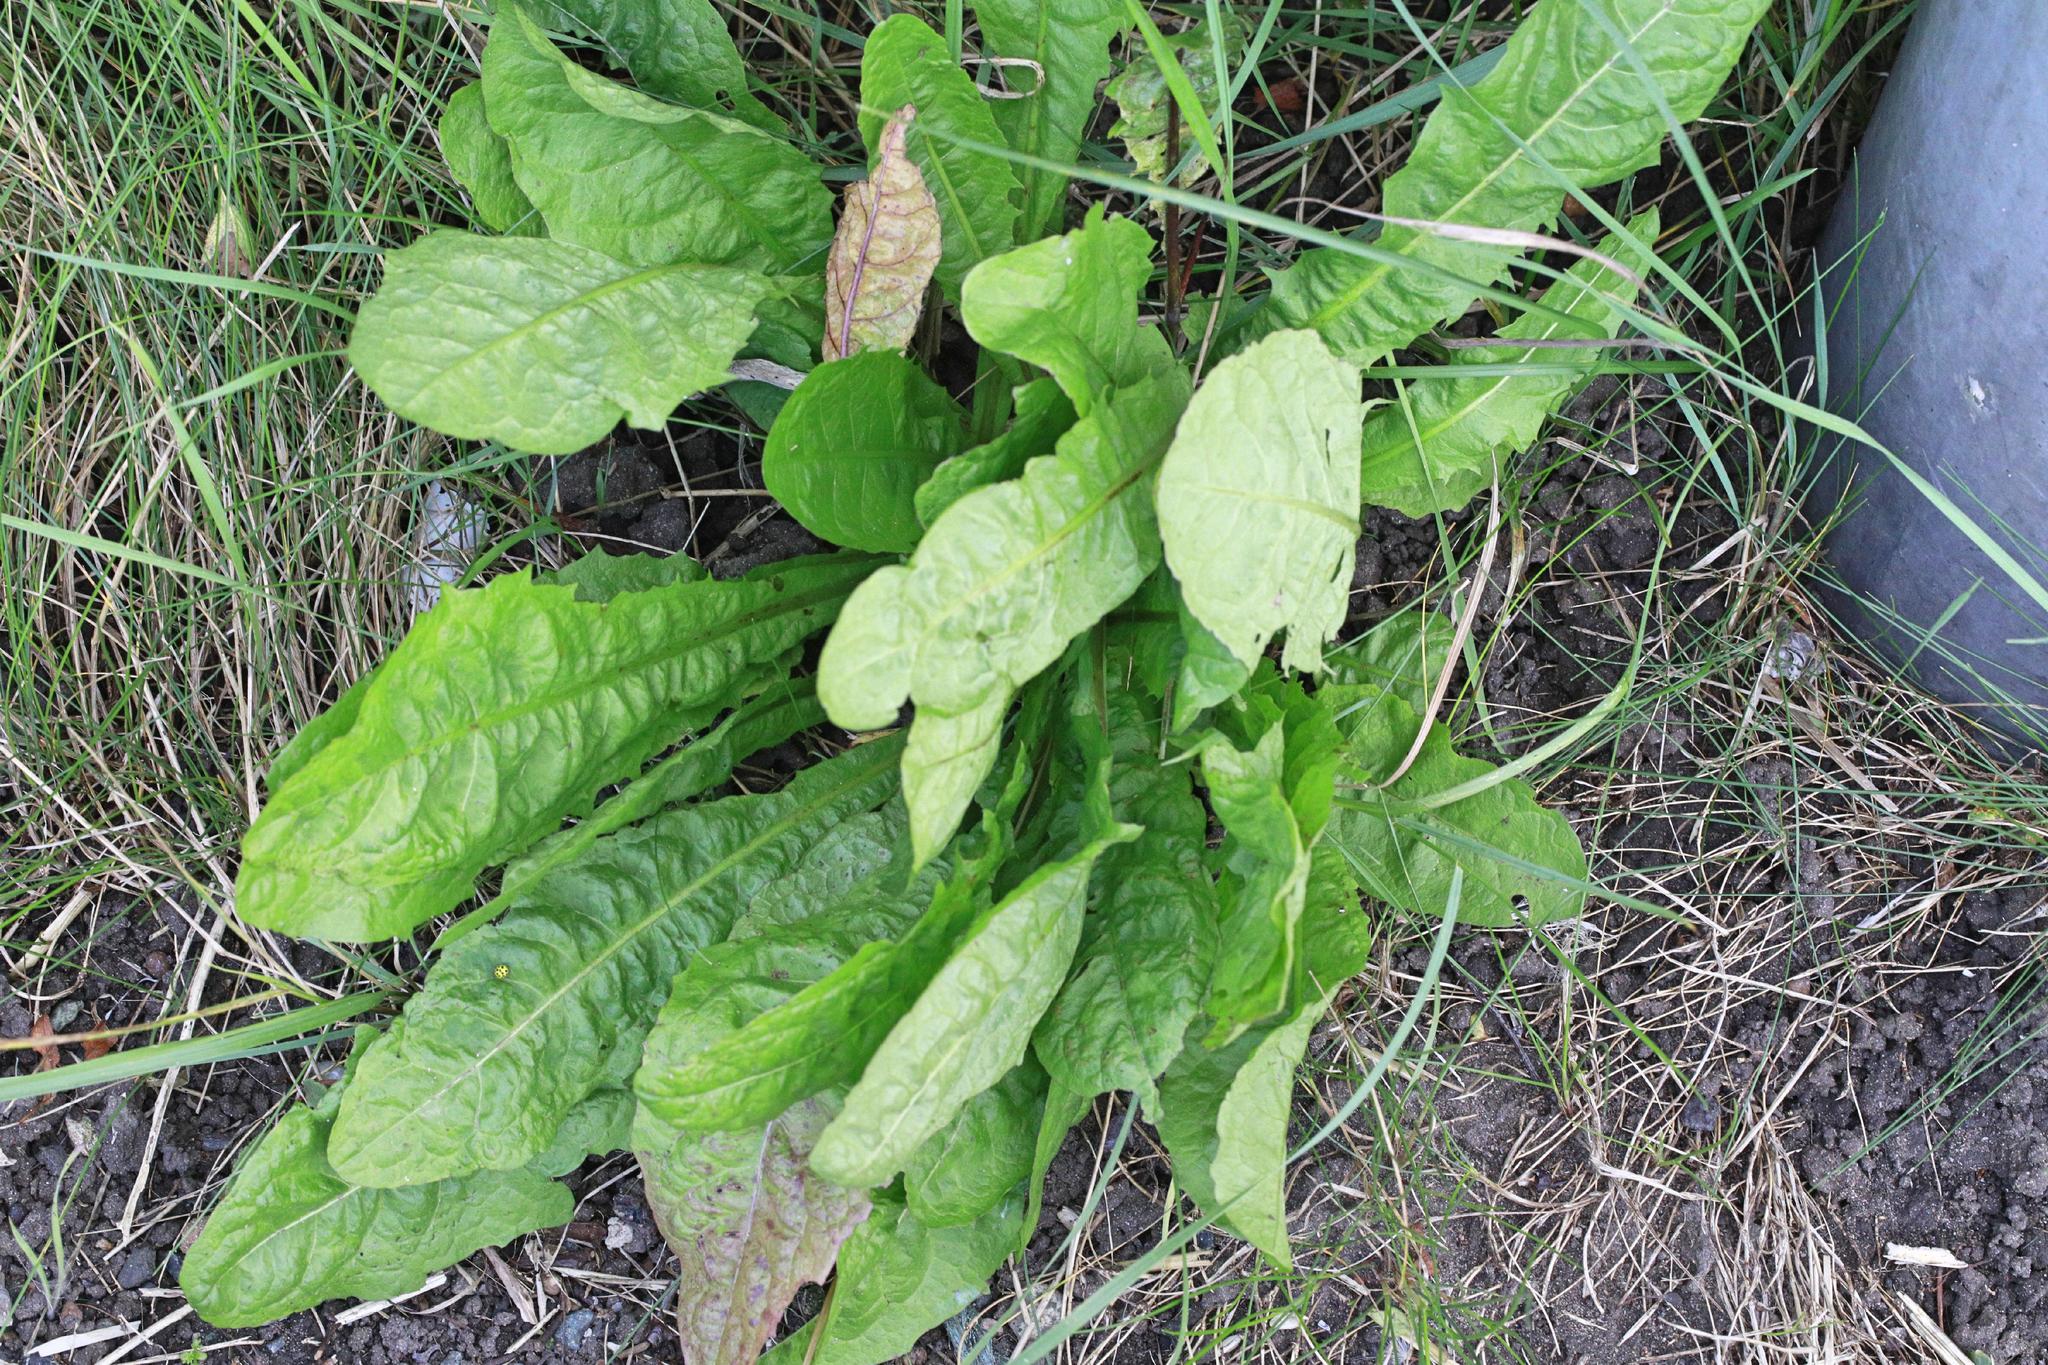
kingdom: Plantae
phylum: Tracheophyta
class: Magnoliopsida
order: Asterales
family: Asteraceae
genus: Taraxacum
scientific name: Taraxacum officinale
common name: Common dandelion
